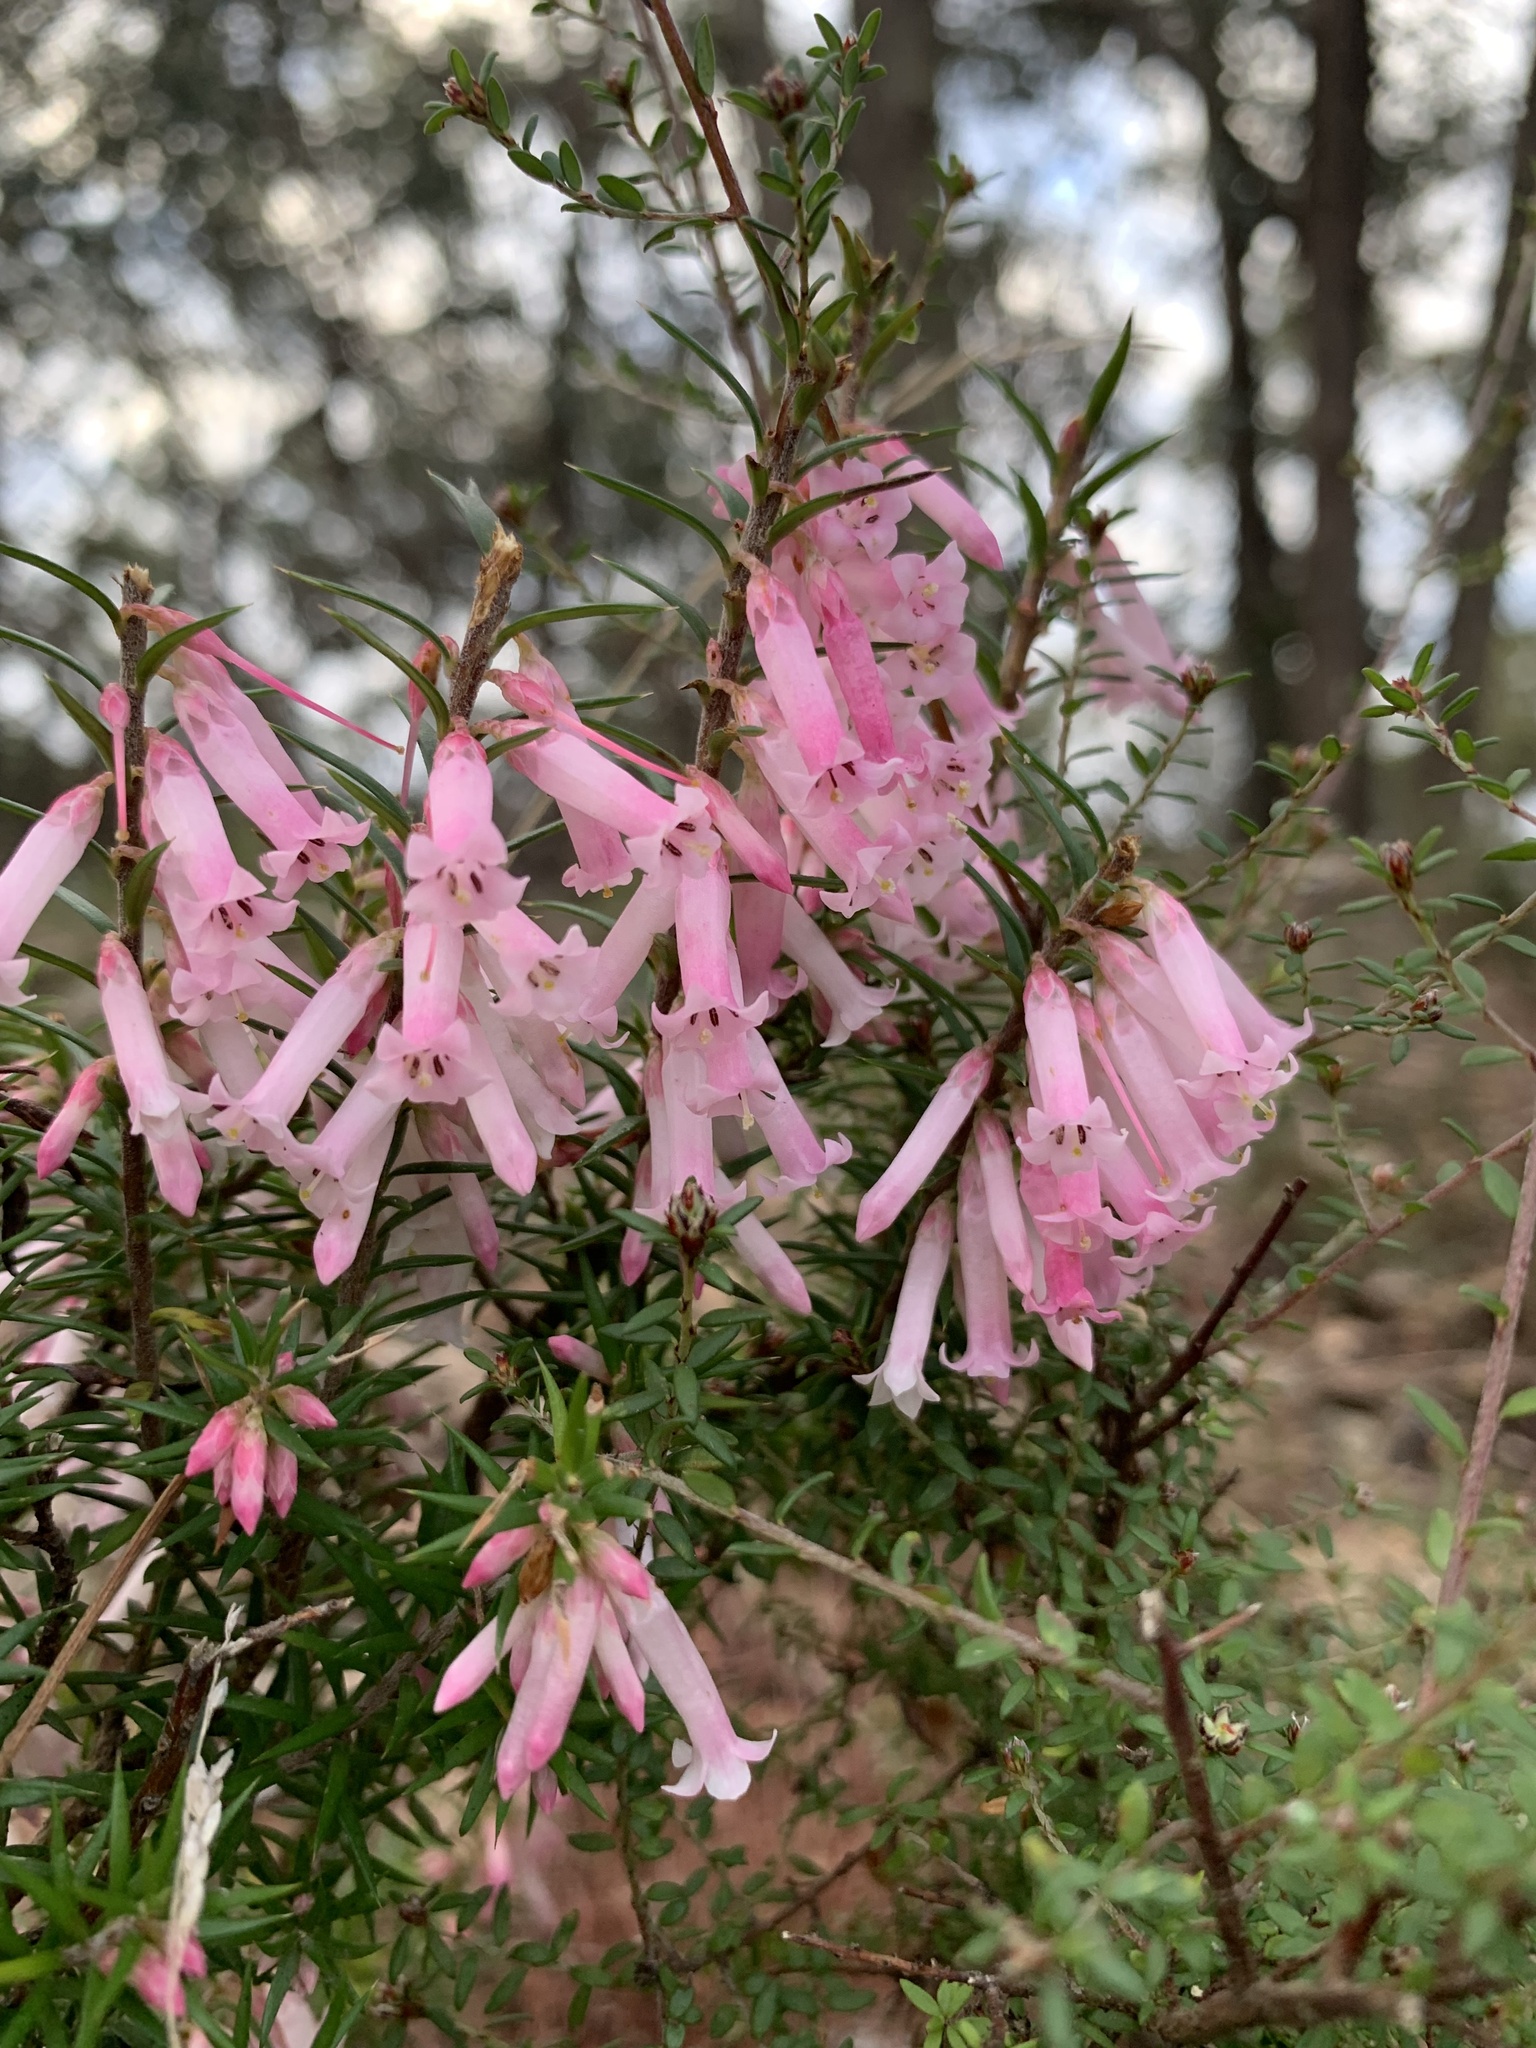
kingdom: Plantae
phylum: Tracheophyta
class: Magnoliopsida
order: Ericales
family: Ericaceae
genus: Epacris
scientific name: Epacris impressa
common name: Common-heath
